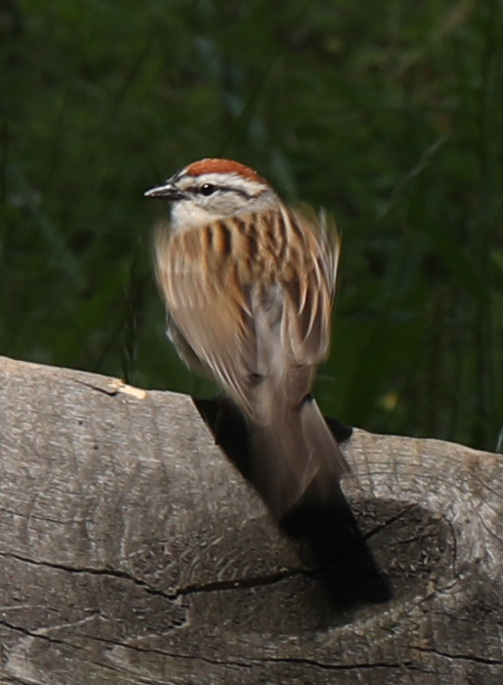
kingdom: Animalia
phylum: Chordata
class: Aves
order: Passeriformes
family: Passerellidae
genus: Spizella
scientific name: Spizella passerina
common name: Chipping sparrow
